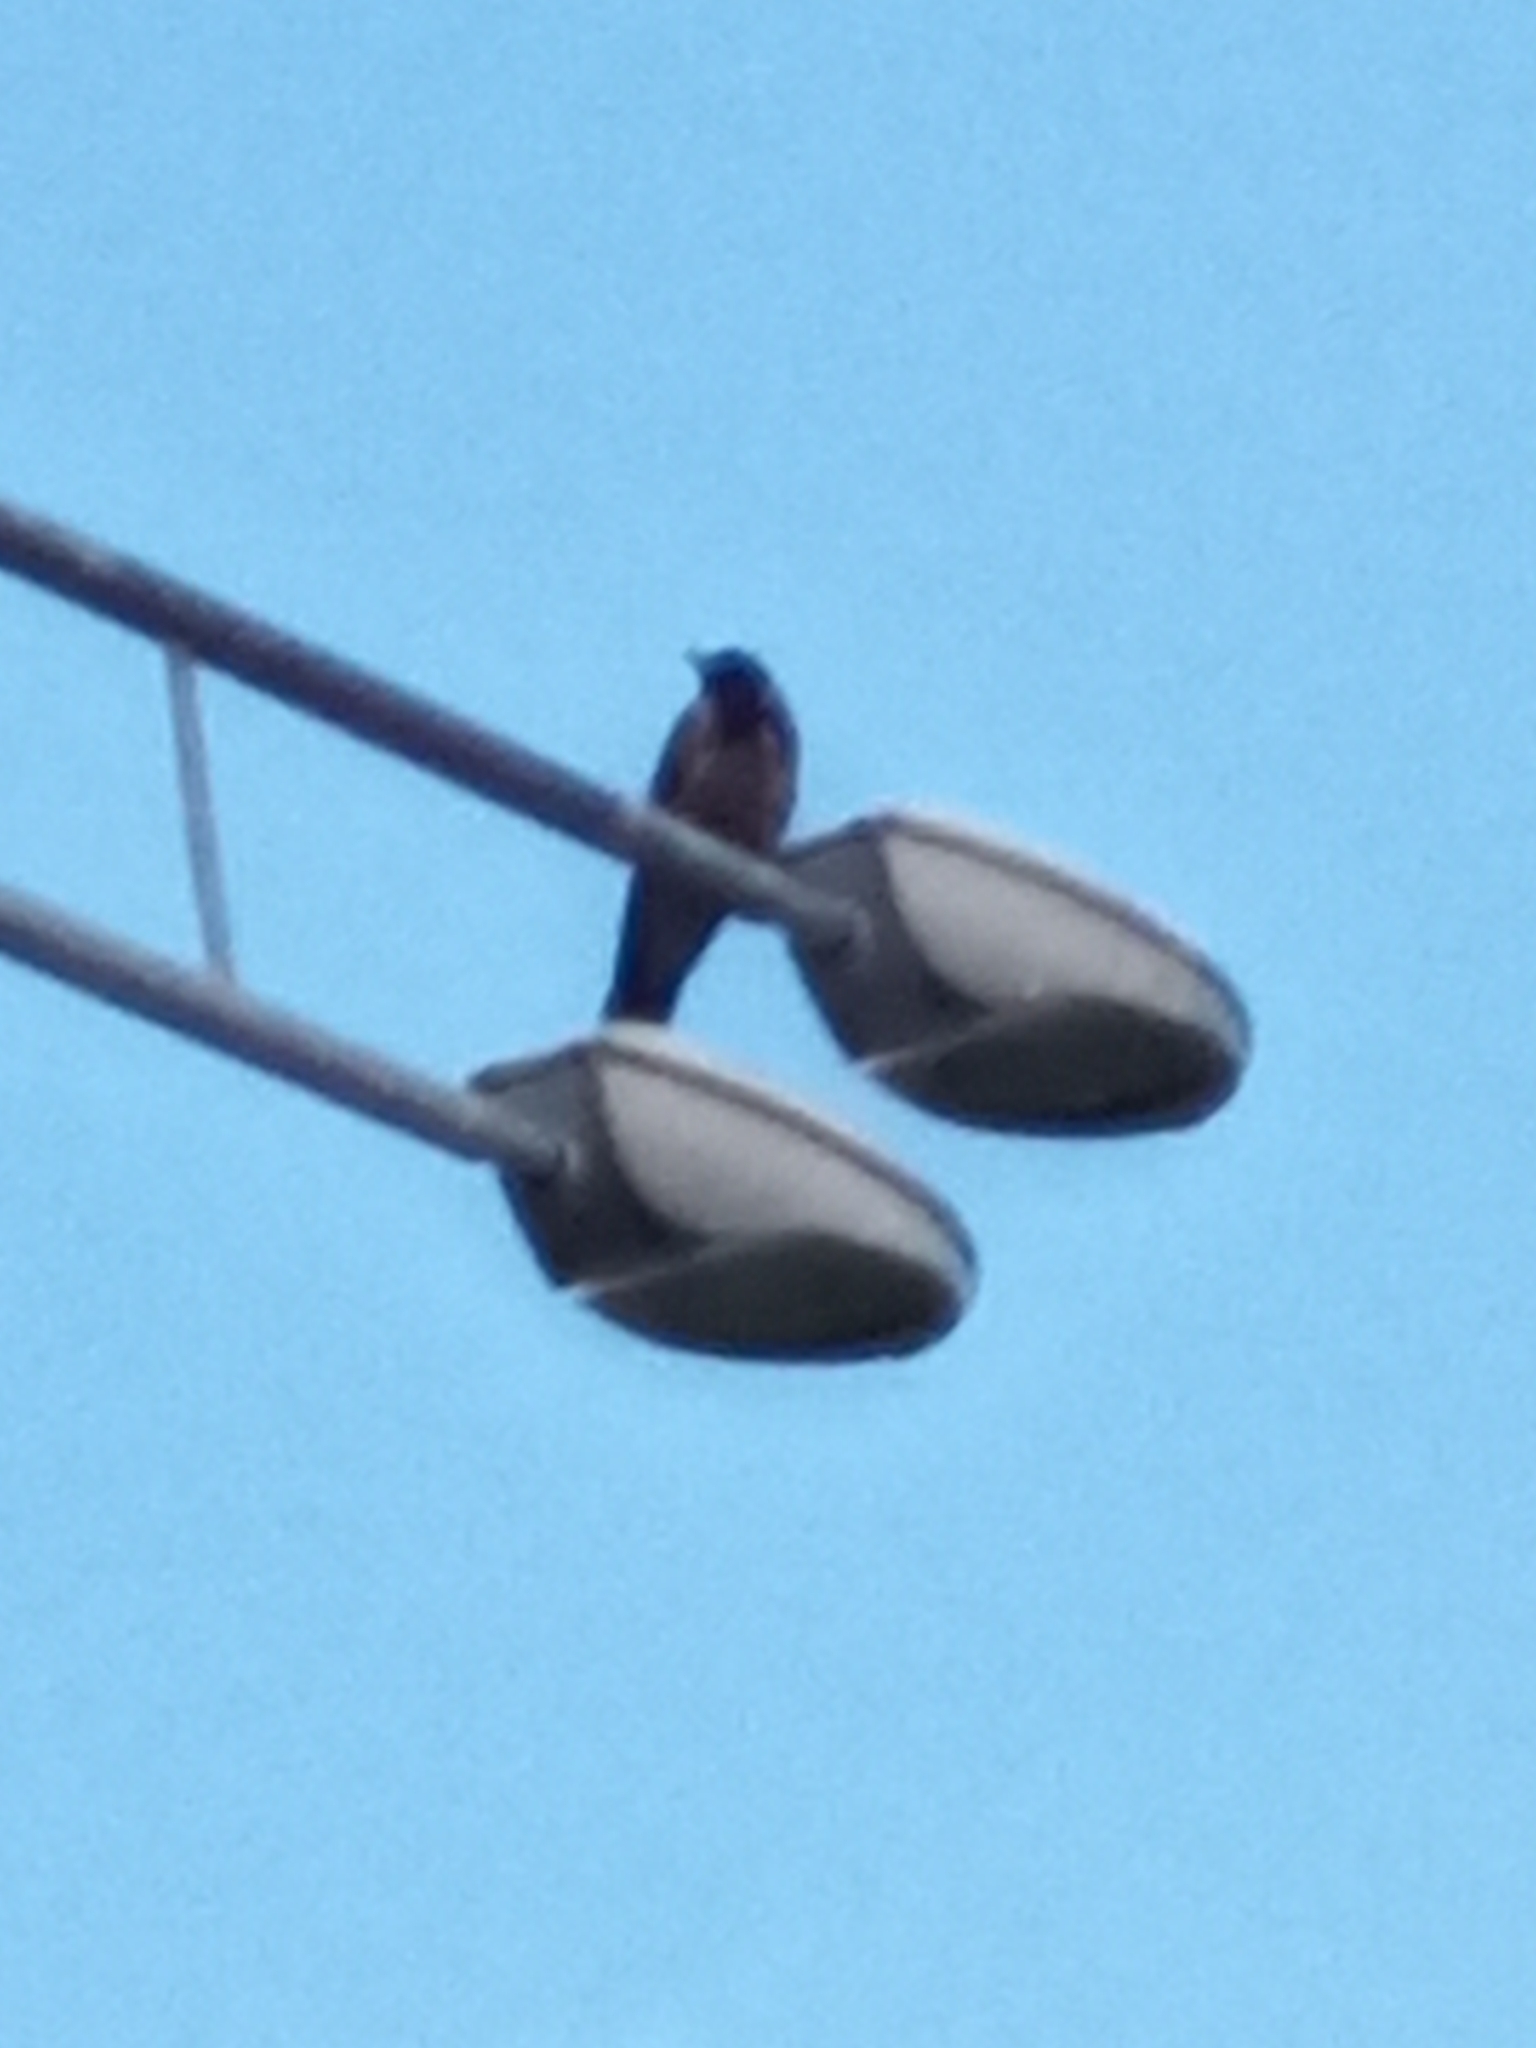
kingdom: Animalia
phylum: Chordata
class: Aves
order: Passeriformes
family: Corvidae
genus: Corvus
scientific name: Corvus cornix
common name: Hooded crow
